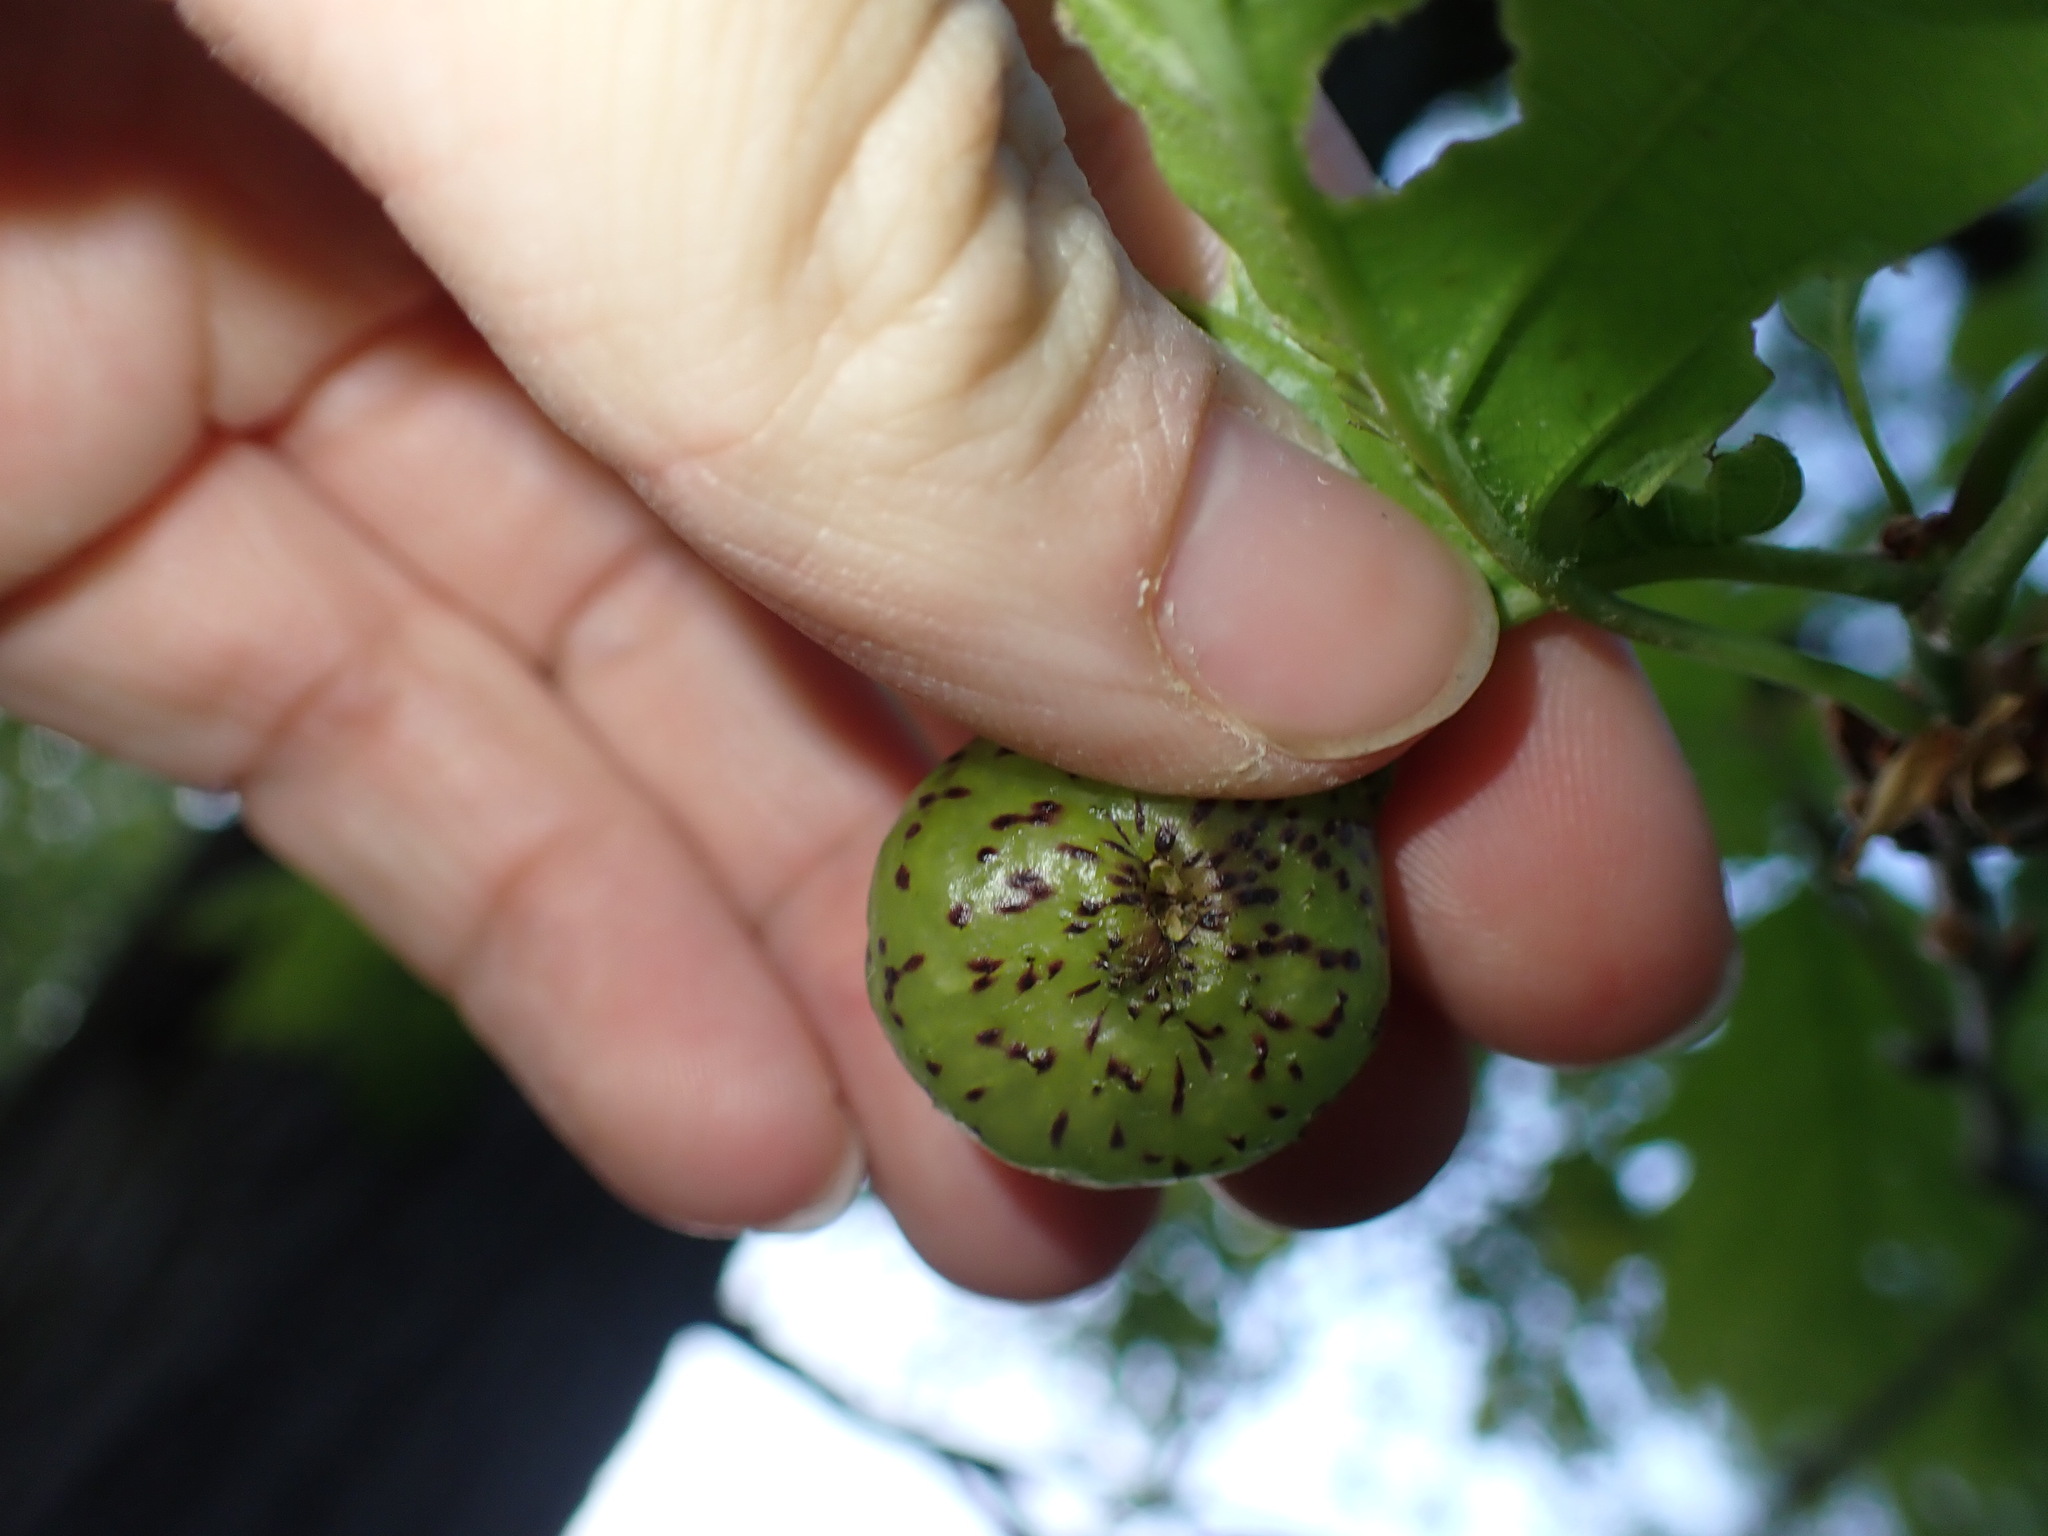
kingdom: Animalia
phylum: Arthropoda
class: Insecta
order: Hymenoptera
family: Cynipidae
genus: Amphibolips
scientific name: Amphibolips
